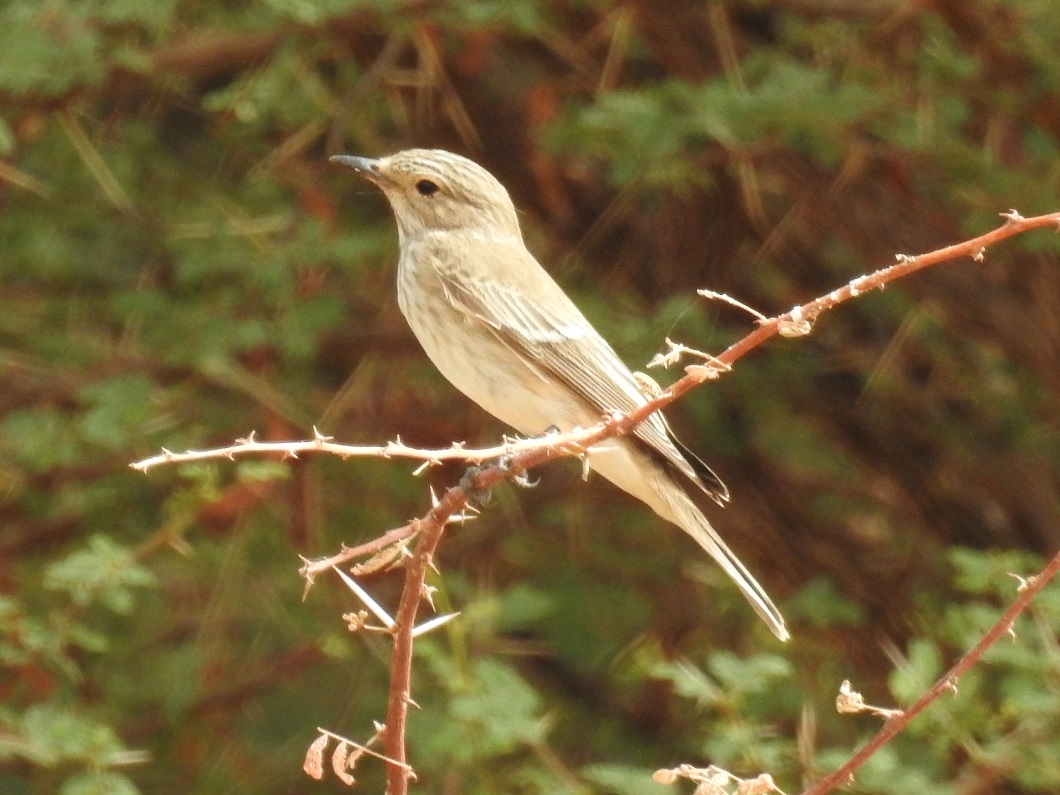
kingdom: Animalia
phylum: Chordata
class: Aves
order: Passeriformes
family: Muscicapidae
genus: Muscicapa
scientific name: Muscicapa striata
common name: Spotted flycatcher
